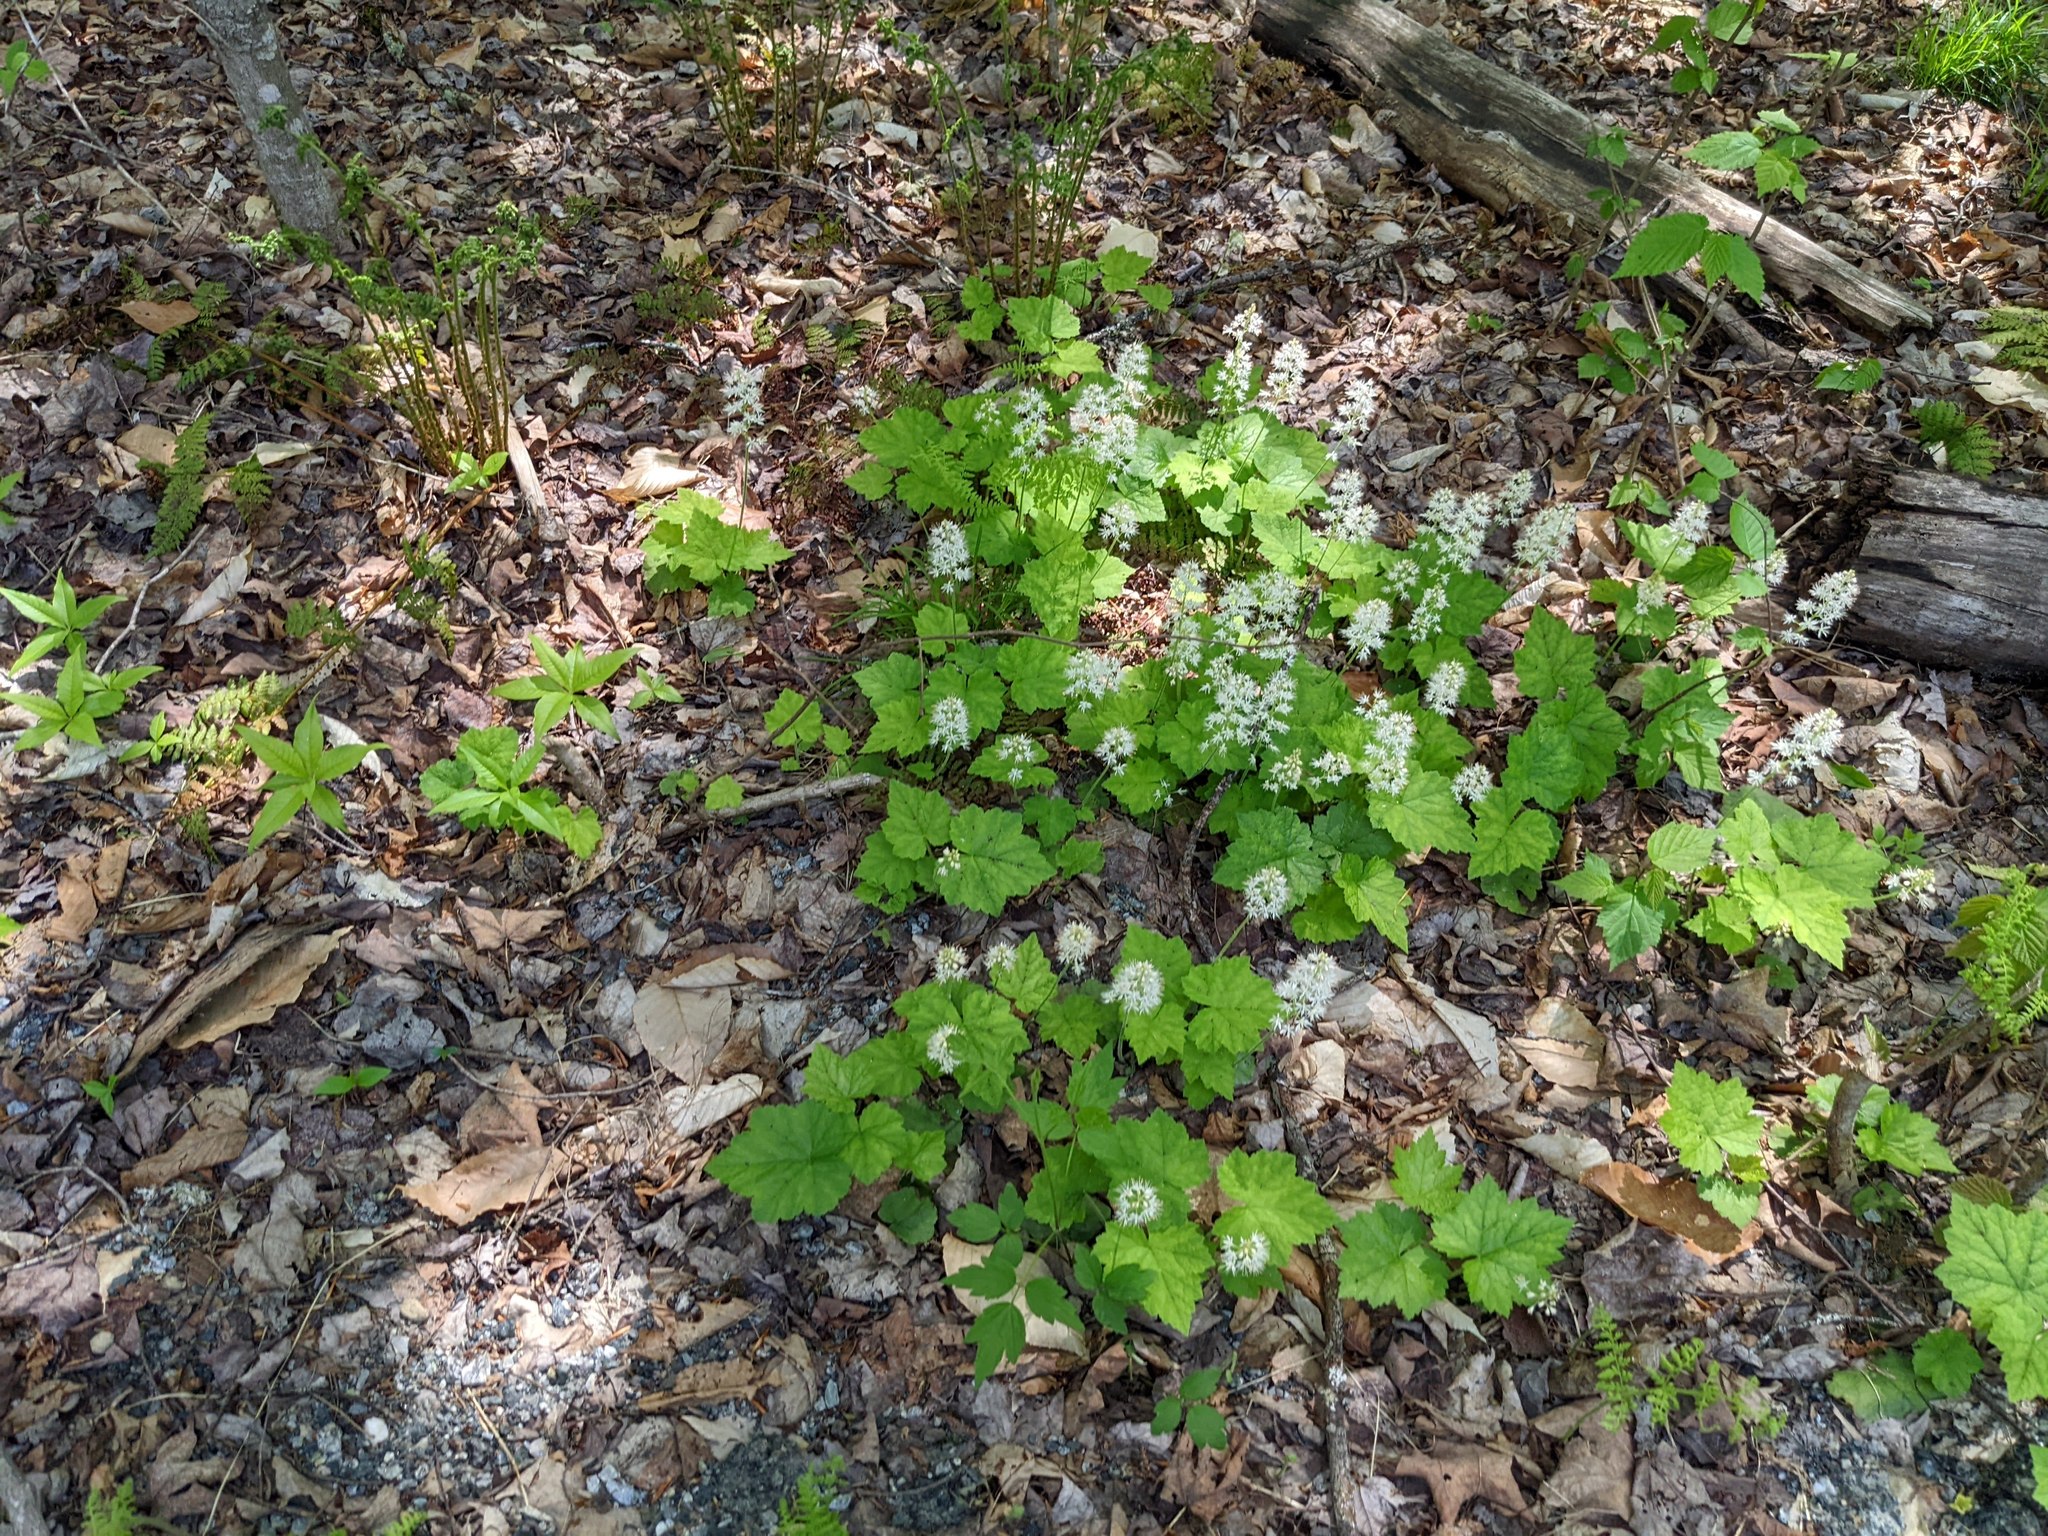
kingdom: Plantae
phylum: Tracheophyta
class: Magnoliopsida
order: Saxifragales
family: Saxifragaceae
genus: Tiarella
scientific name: Tiarella stolonifera
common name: Stoloniferous foamflower
